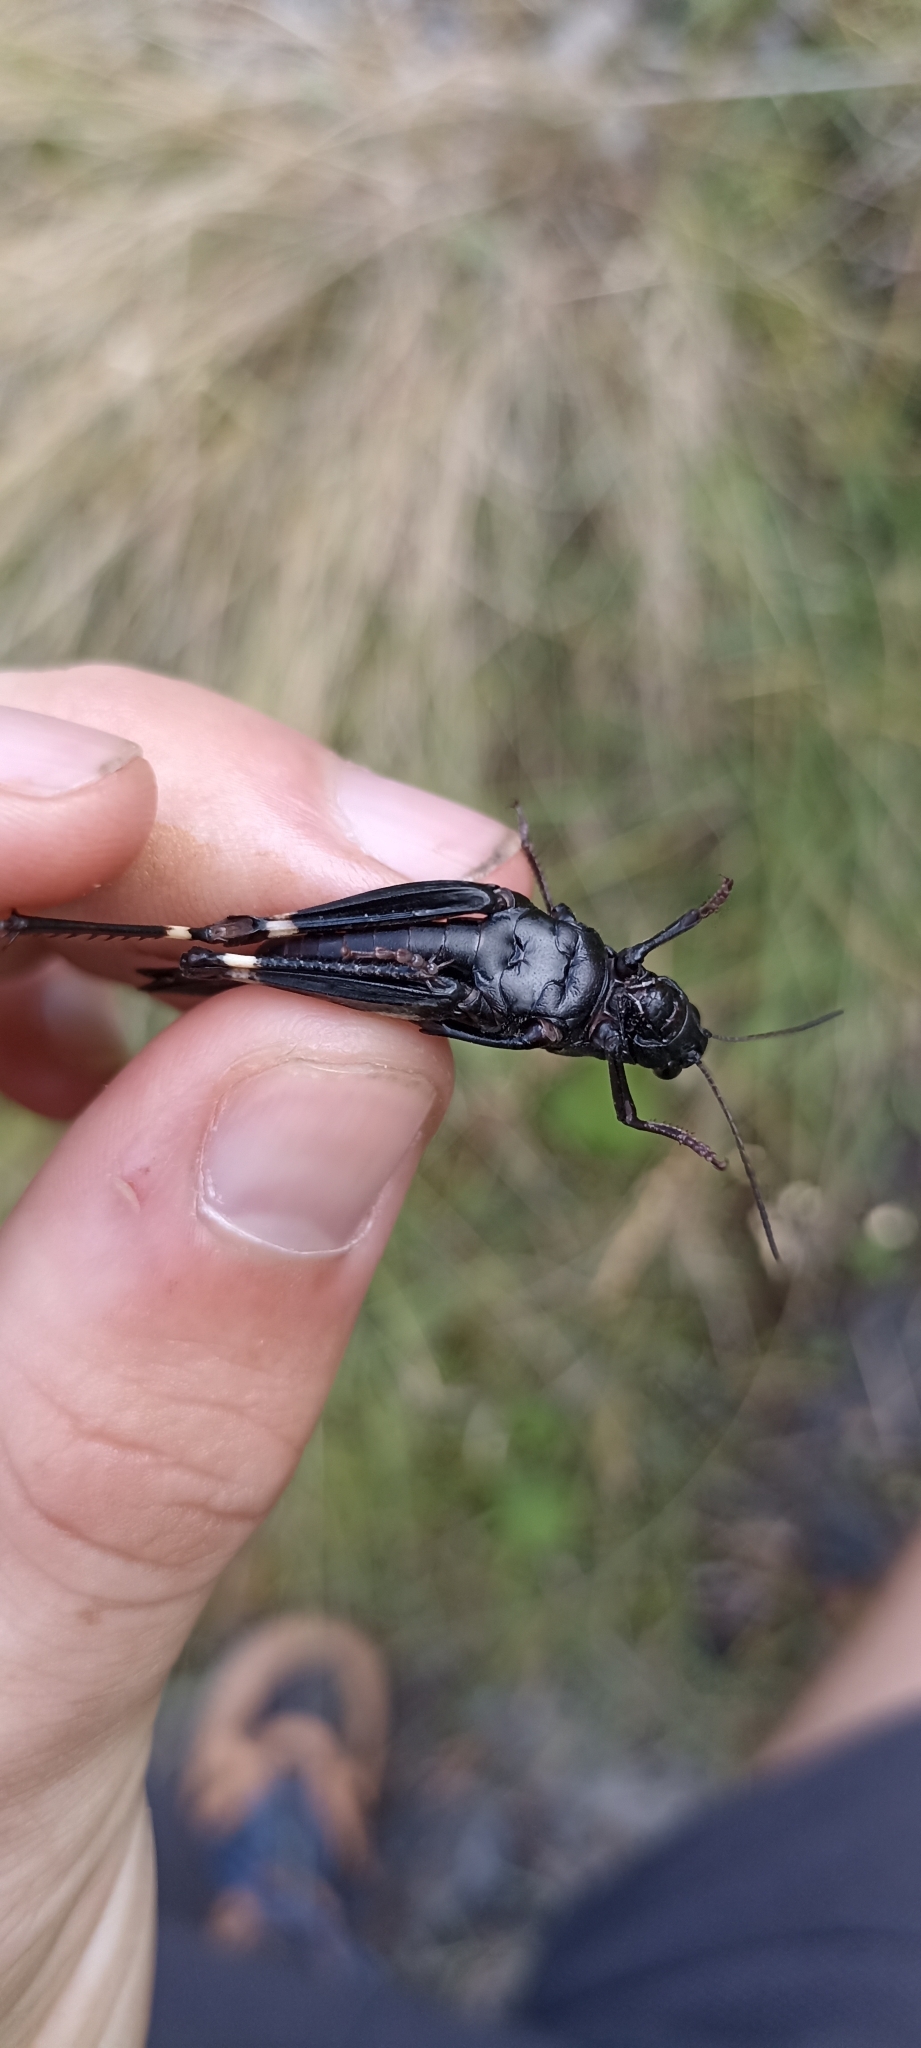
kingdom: Animalia
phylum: Arthropoda
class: Insecta
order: Orthoptera
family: Acrididae
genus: Psophus
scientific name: Psophus stridulus
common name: Rattle grasshopper
